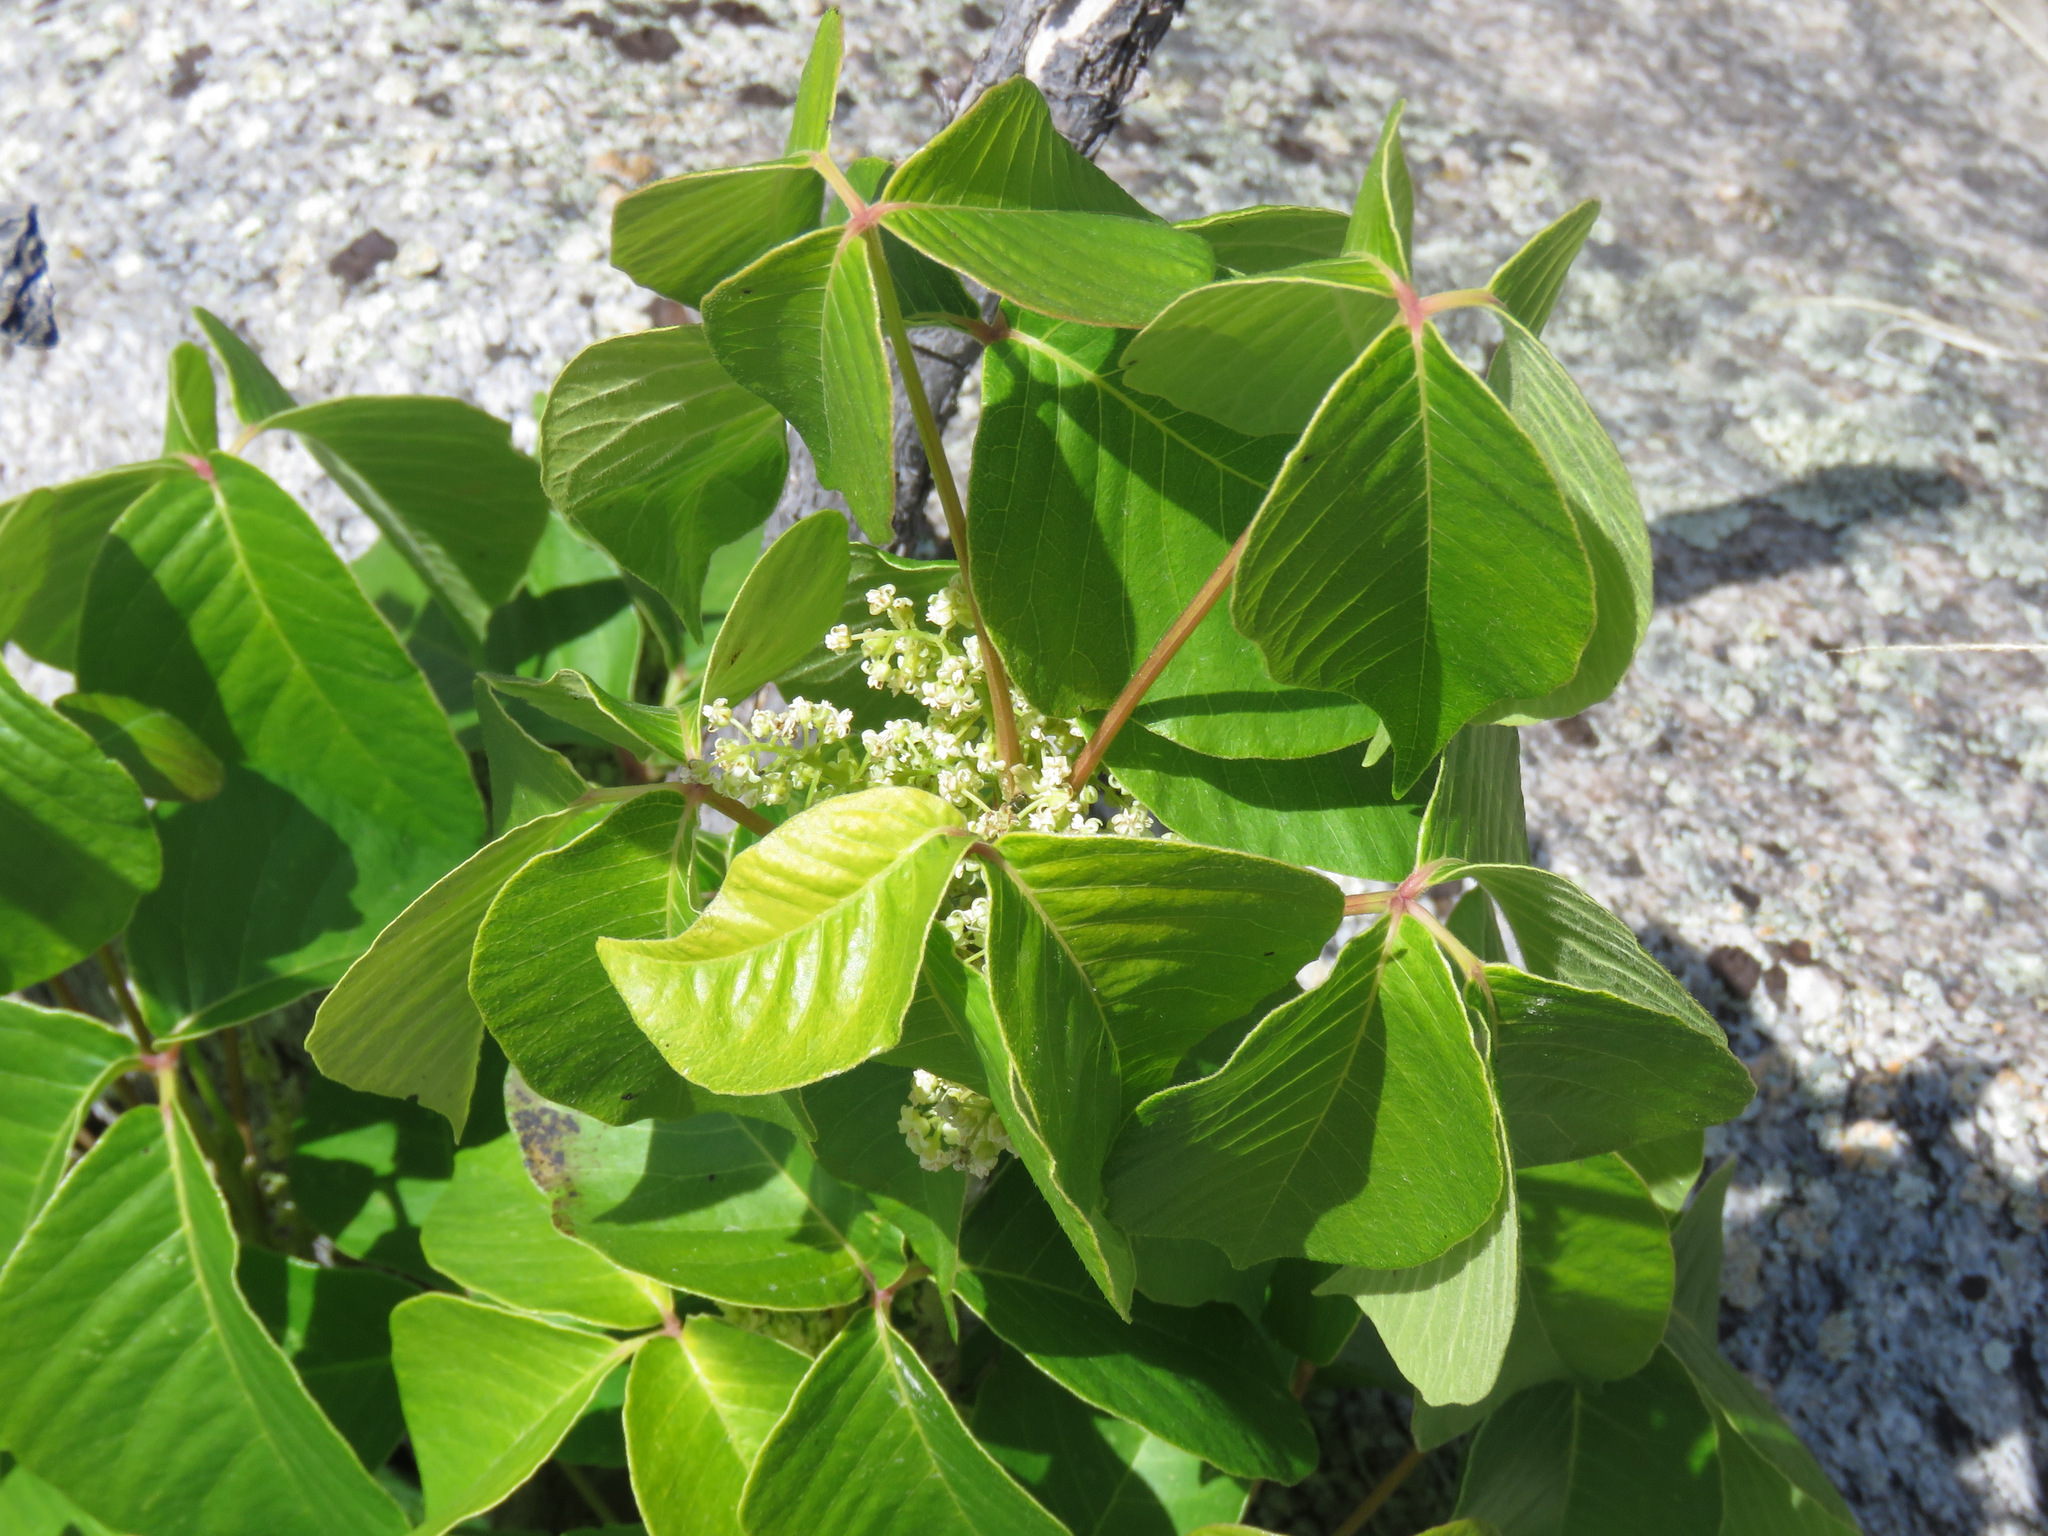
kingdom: Plantae
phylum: Tracheophyta
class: Magnoliopsida
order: Sapindales
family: Anacardiaceae
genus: Toxicodendron
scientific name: Toxicodendron rydbergii
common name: Rydberg's poison-ivy
